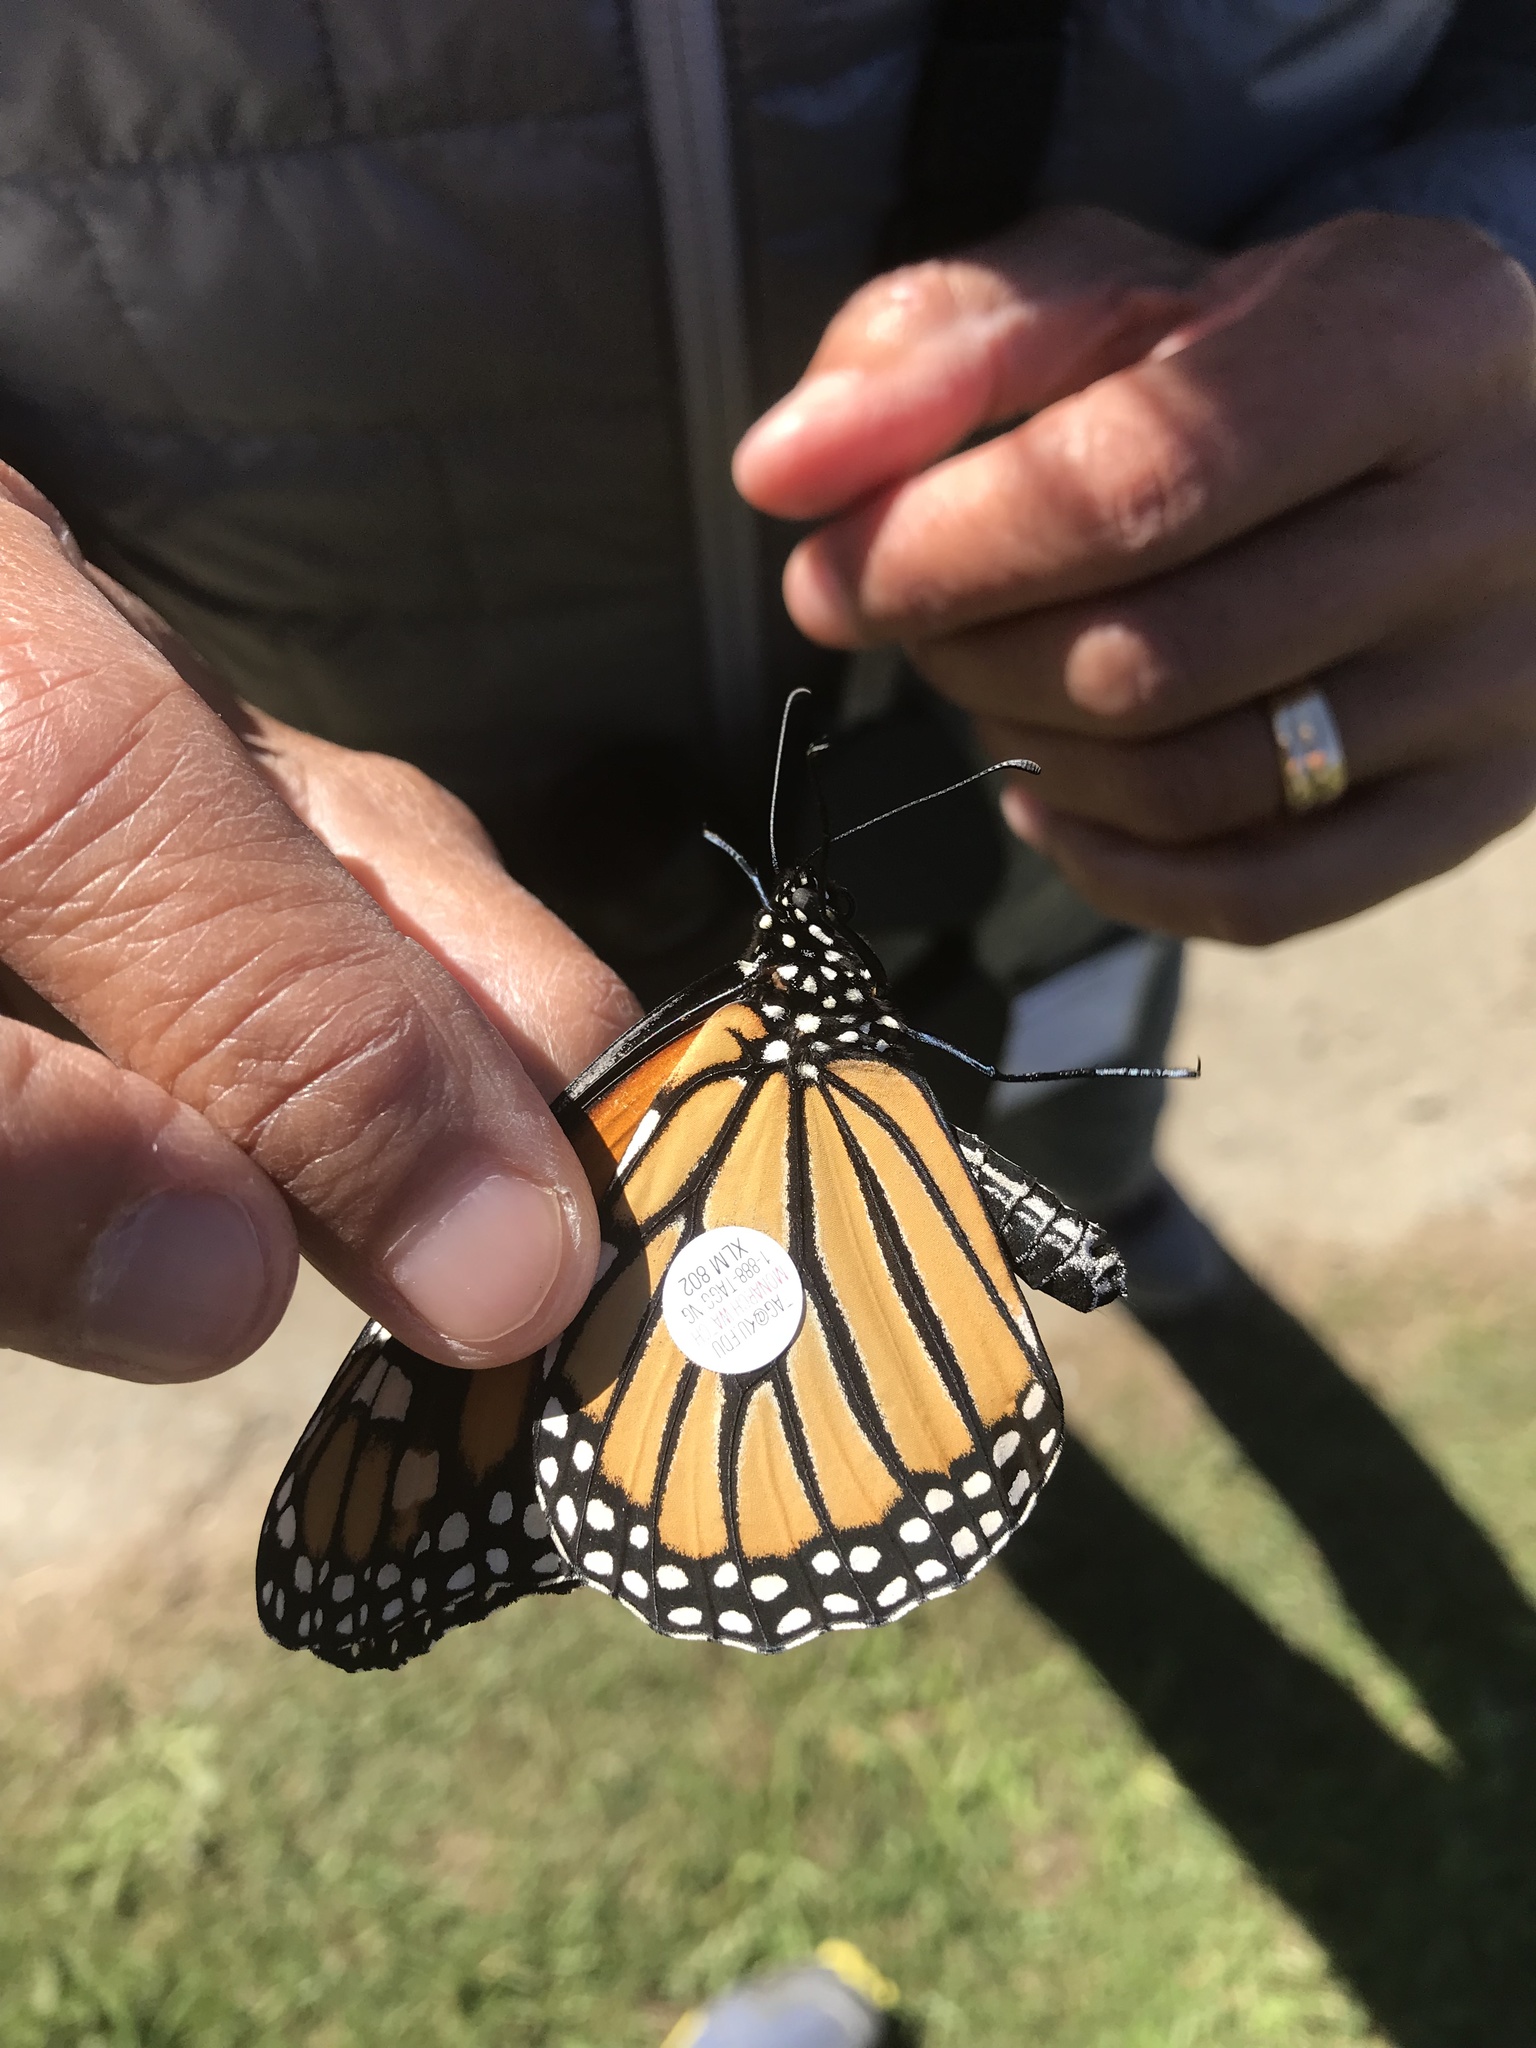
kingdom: Animalia
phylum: Arthropoda
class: Insecta
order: Lepidoptera
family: Nymphalidae
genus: Danaus
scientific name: Danaus plexippus
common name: Monarch
